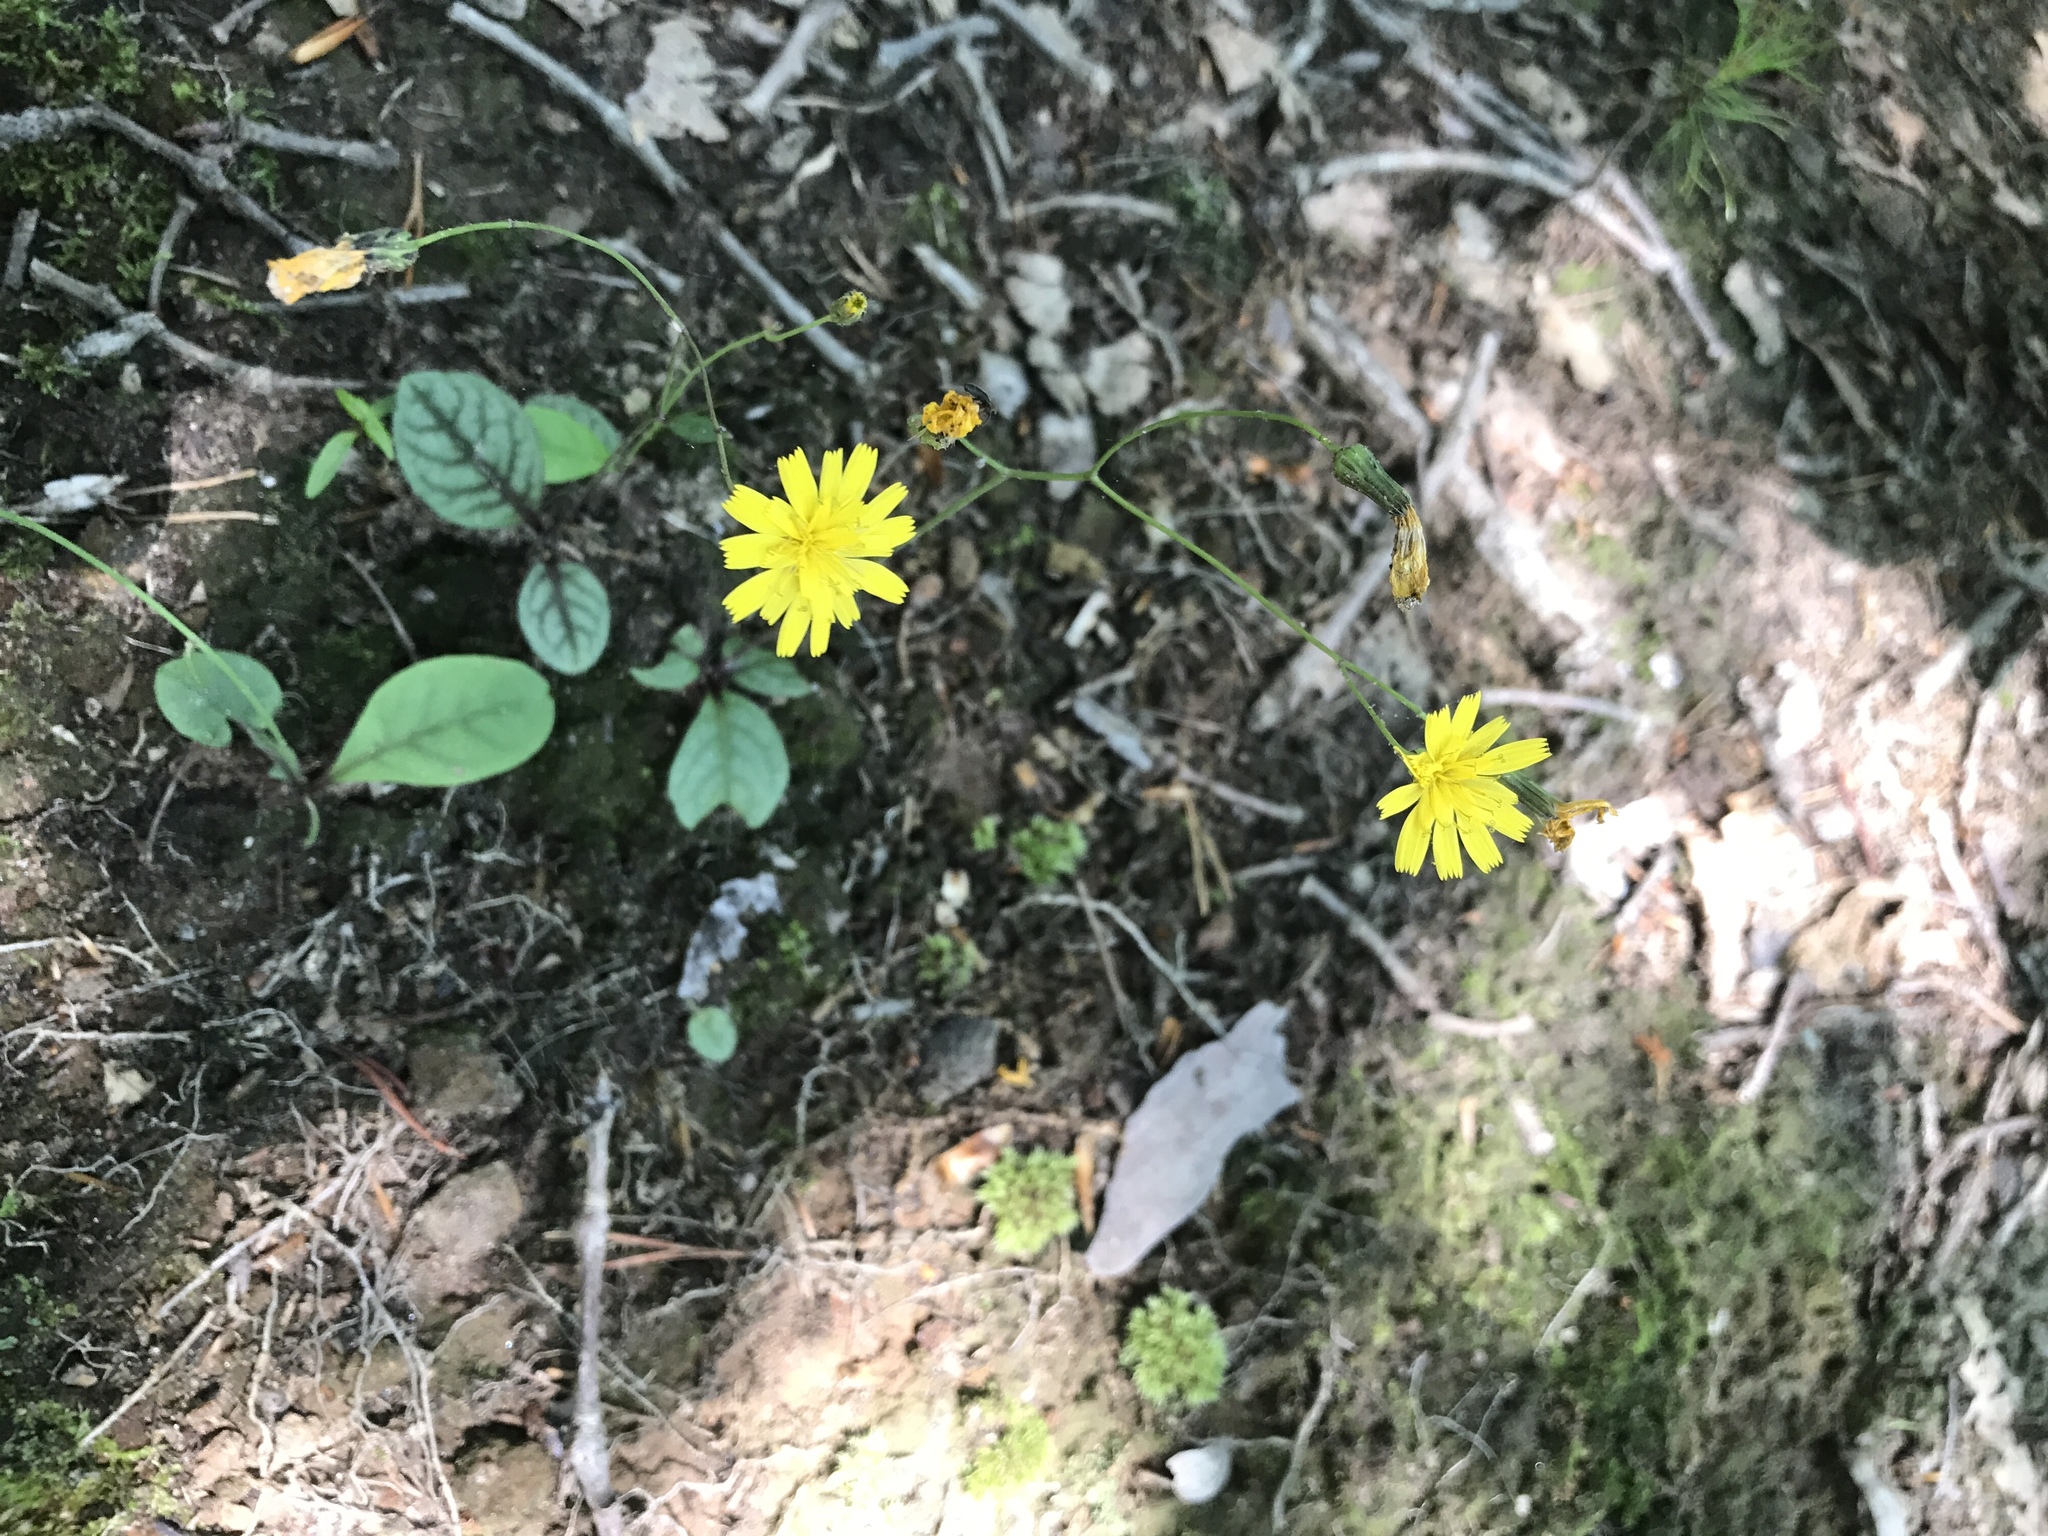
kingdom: Plantae
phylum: Tracheophyta
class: Magnoliopsida
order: Asterales
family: Asteraceae
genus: Hieracium
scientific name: Hieracium venosum
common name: Rattlesnake hawkweed
